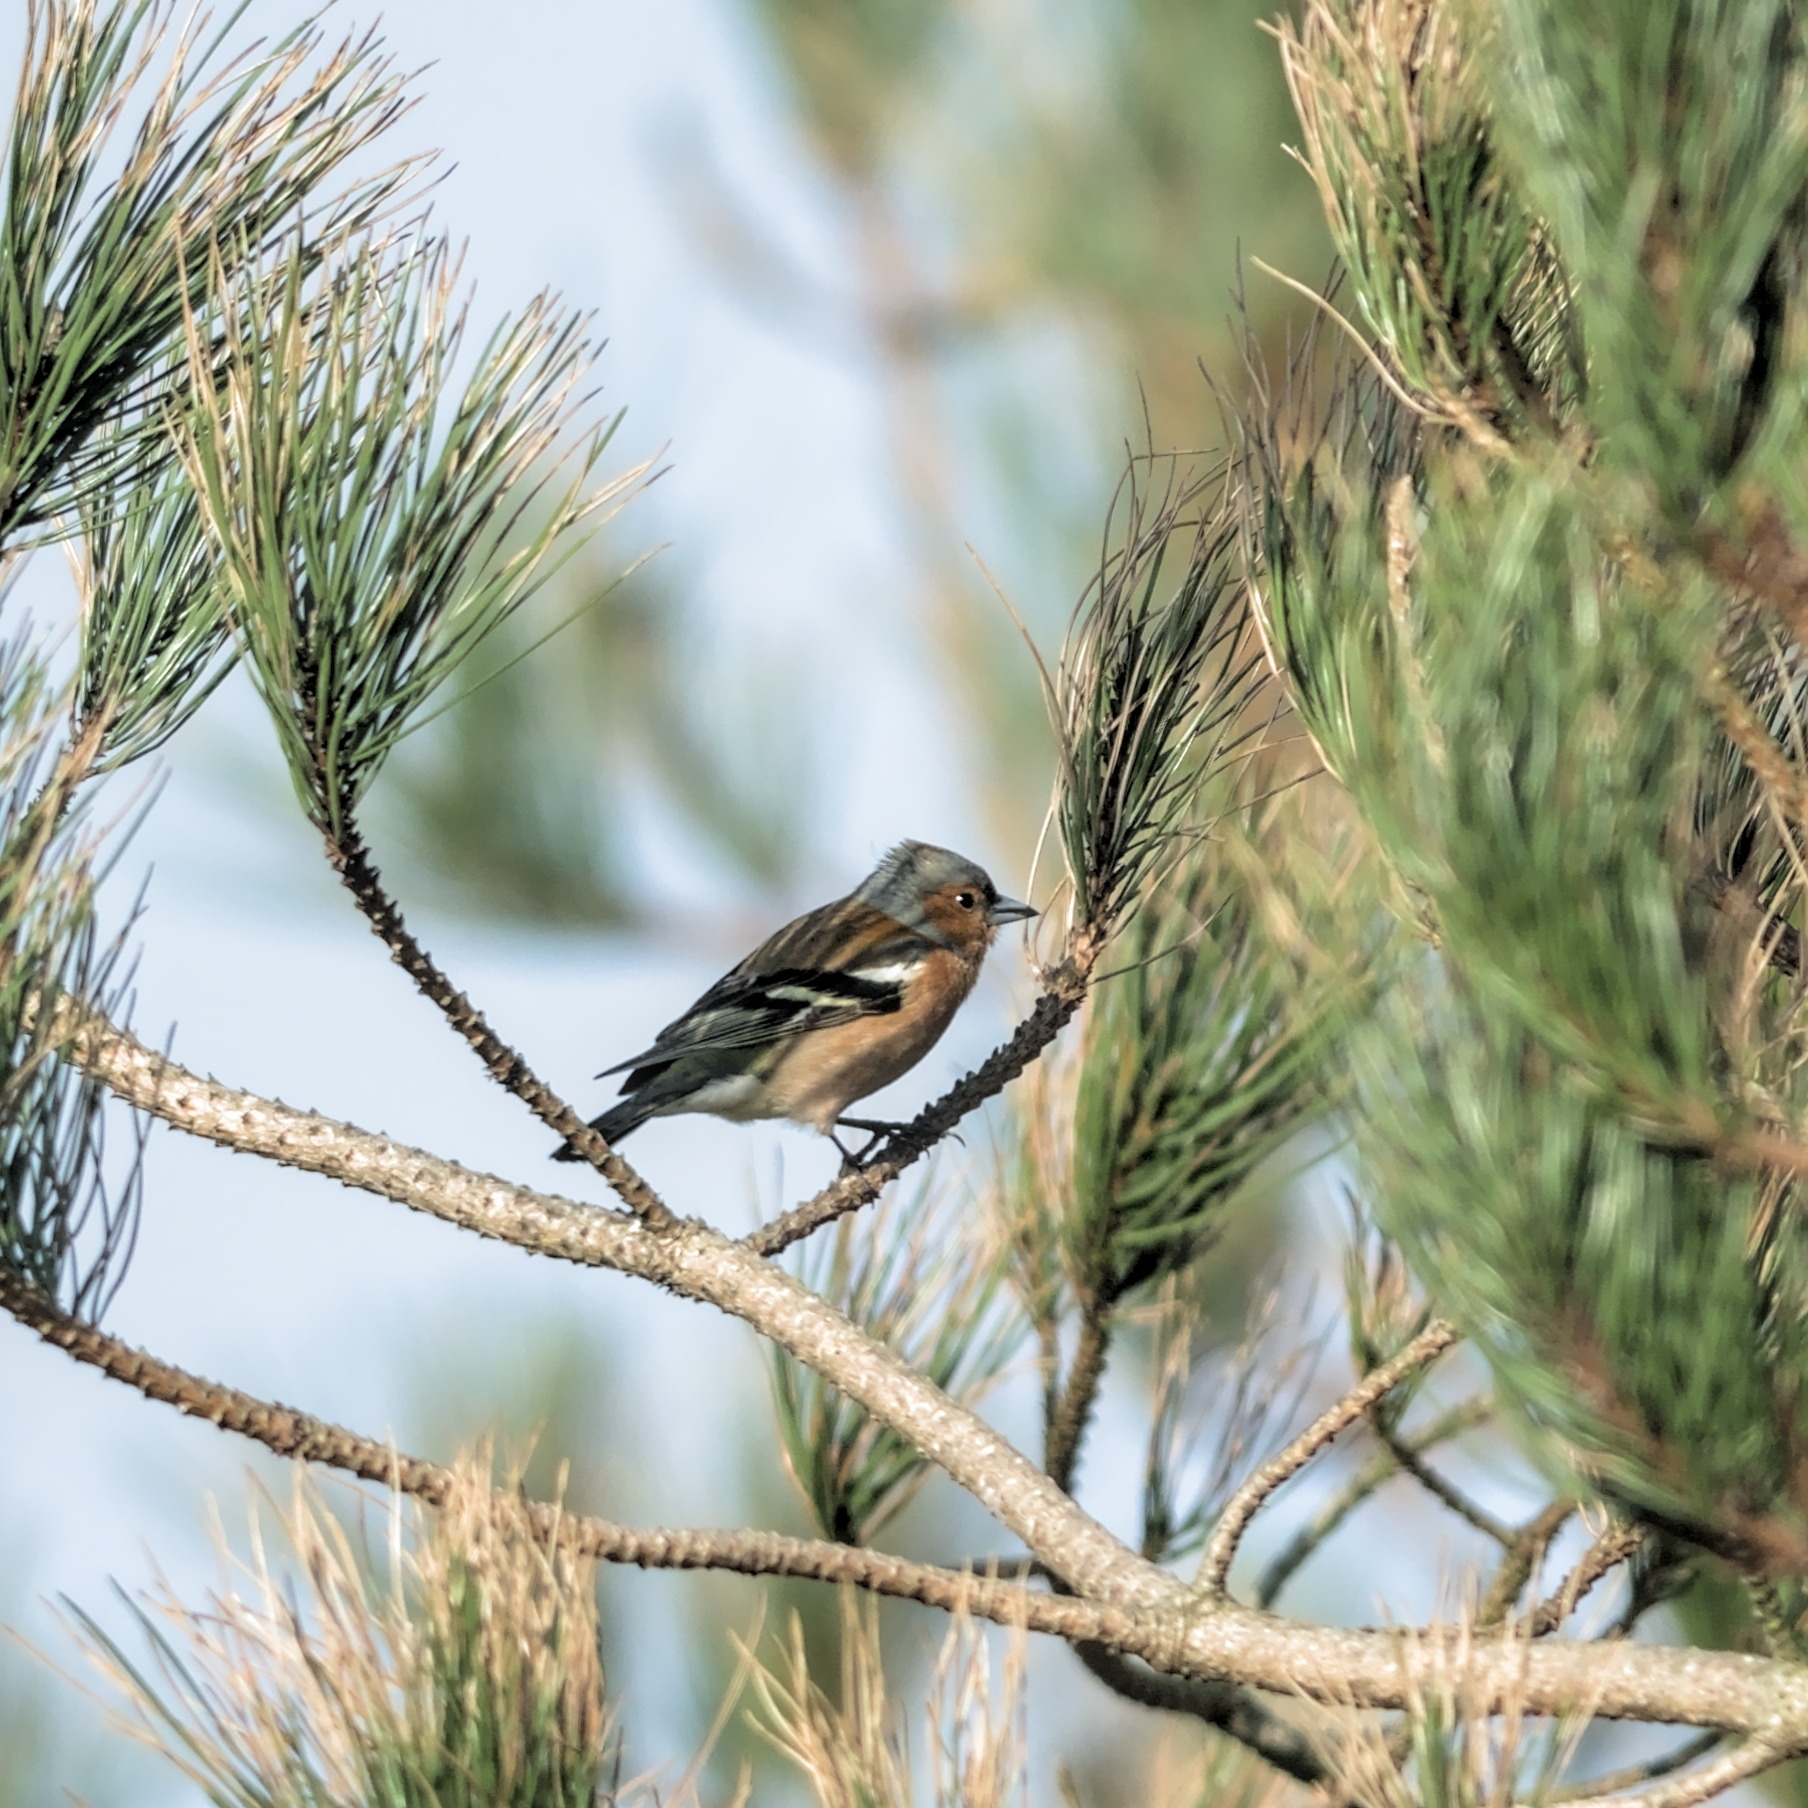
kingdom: Animalia
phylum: Chordata
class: Aves
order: Passeriformes
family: Fringillidae
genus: Fringilla
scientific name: Fringilla coelebs
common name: Common chaffinch
